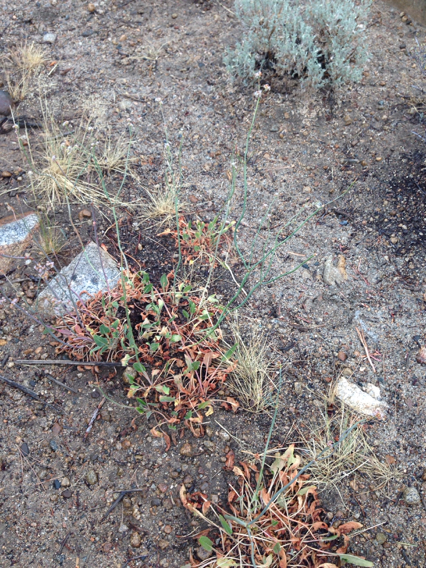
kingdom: Plantae
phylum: Tracheophyta
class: Magnoliopsida
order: Caryophyllales
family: Polygonaceae
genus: Eriogonum
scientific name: Eriogonum elatum
